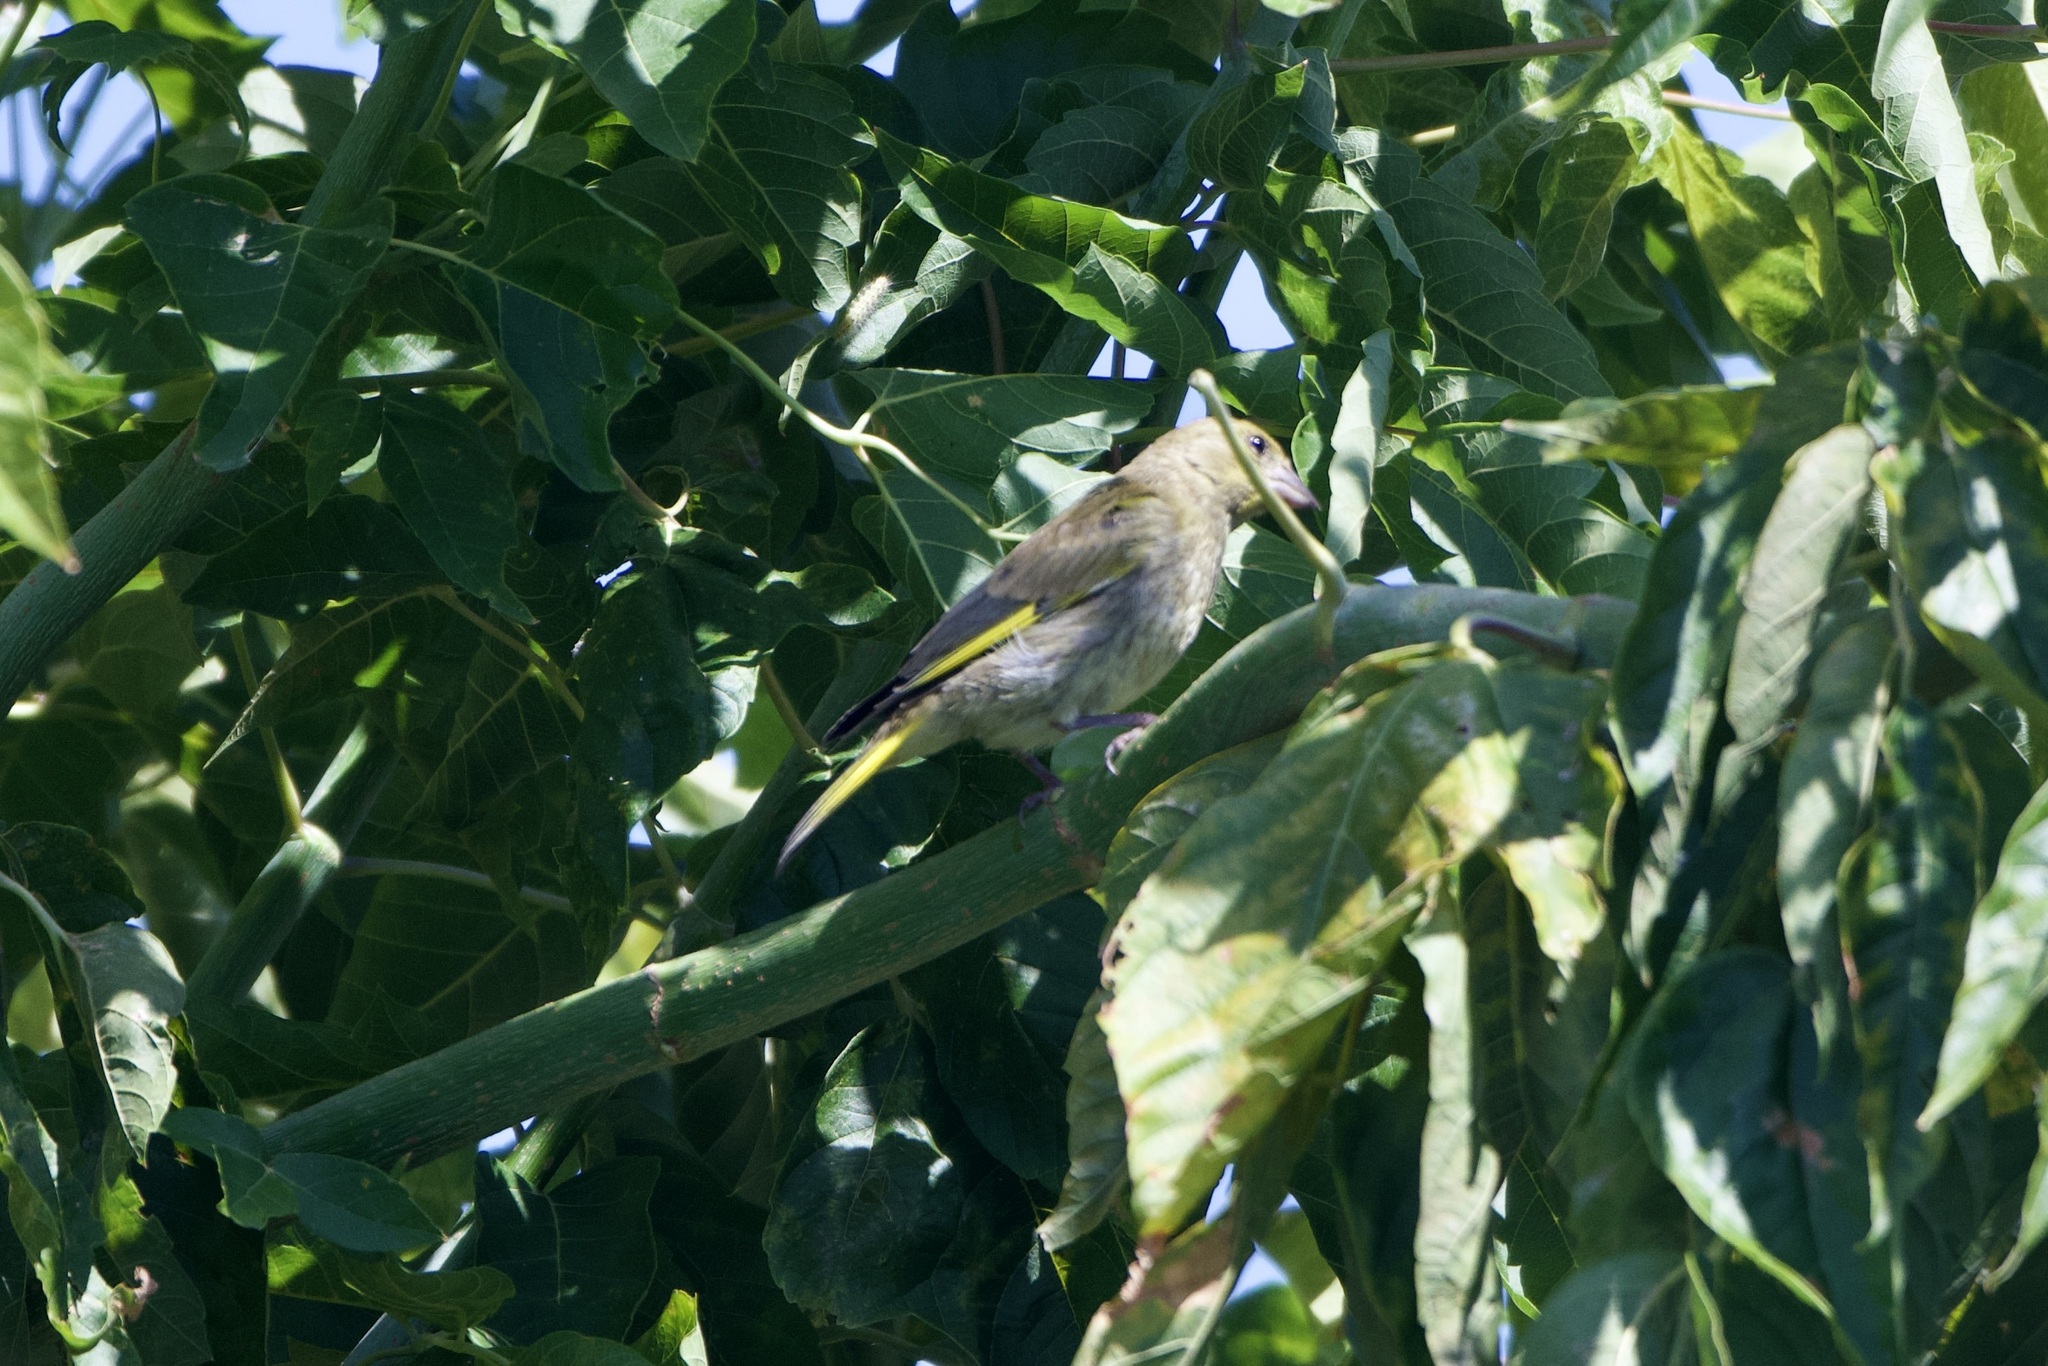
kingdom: Plantae
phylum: Tracheophyta
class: Liliopsida
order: Poales
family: Poaceae
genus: Chloris
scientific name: Chloris chloris
